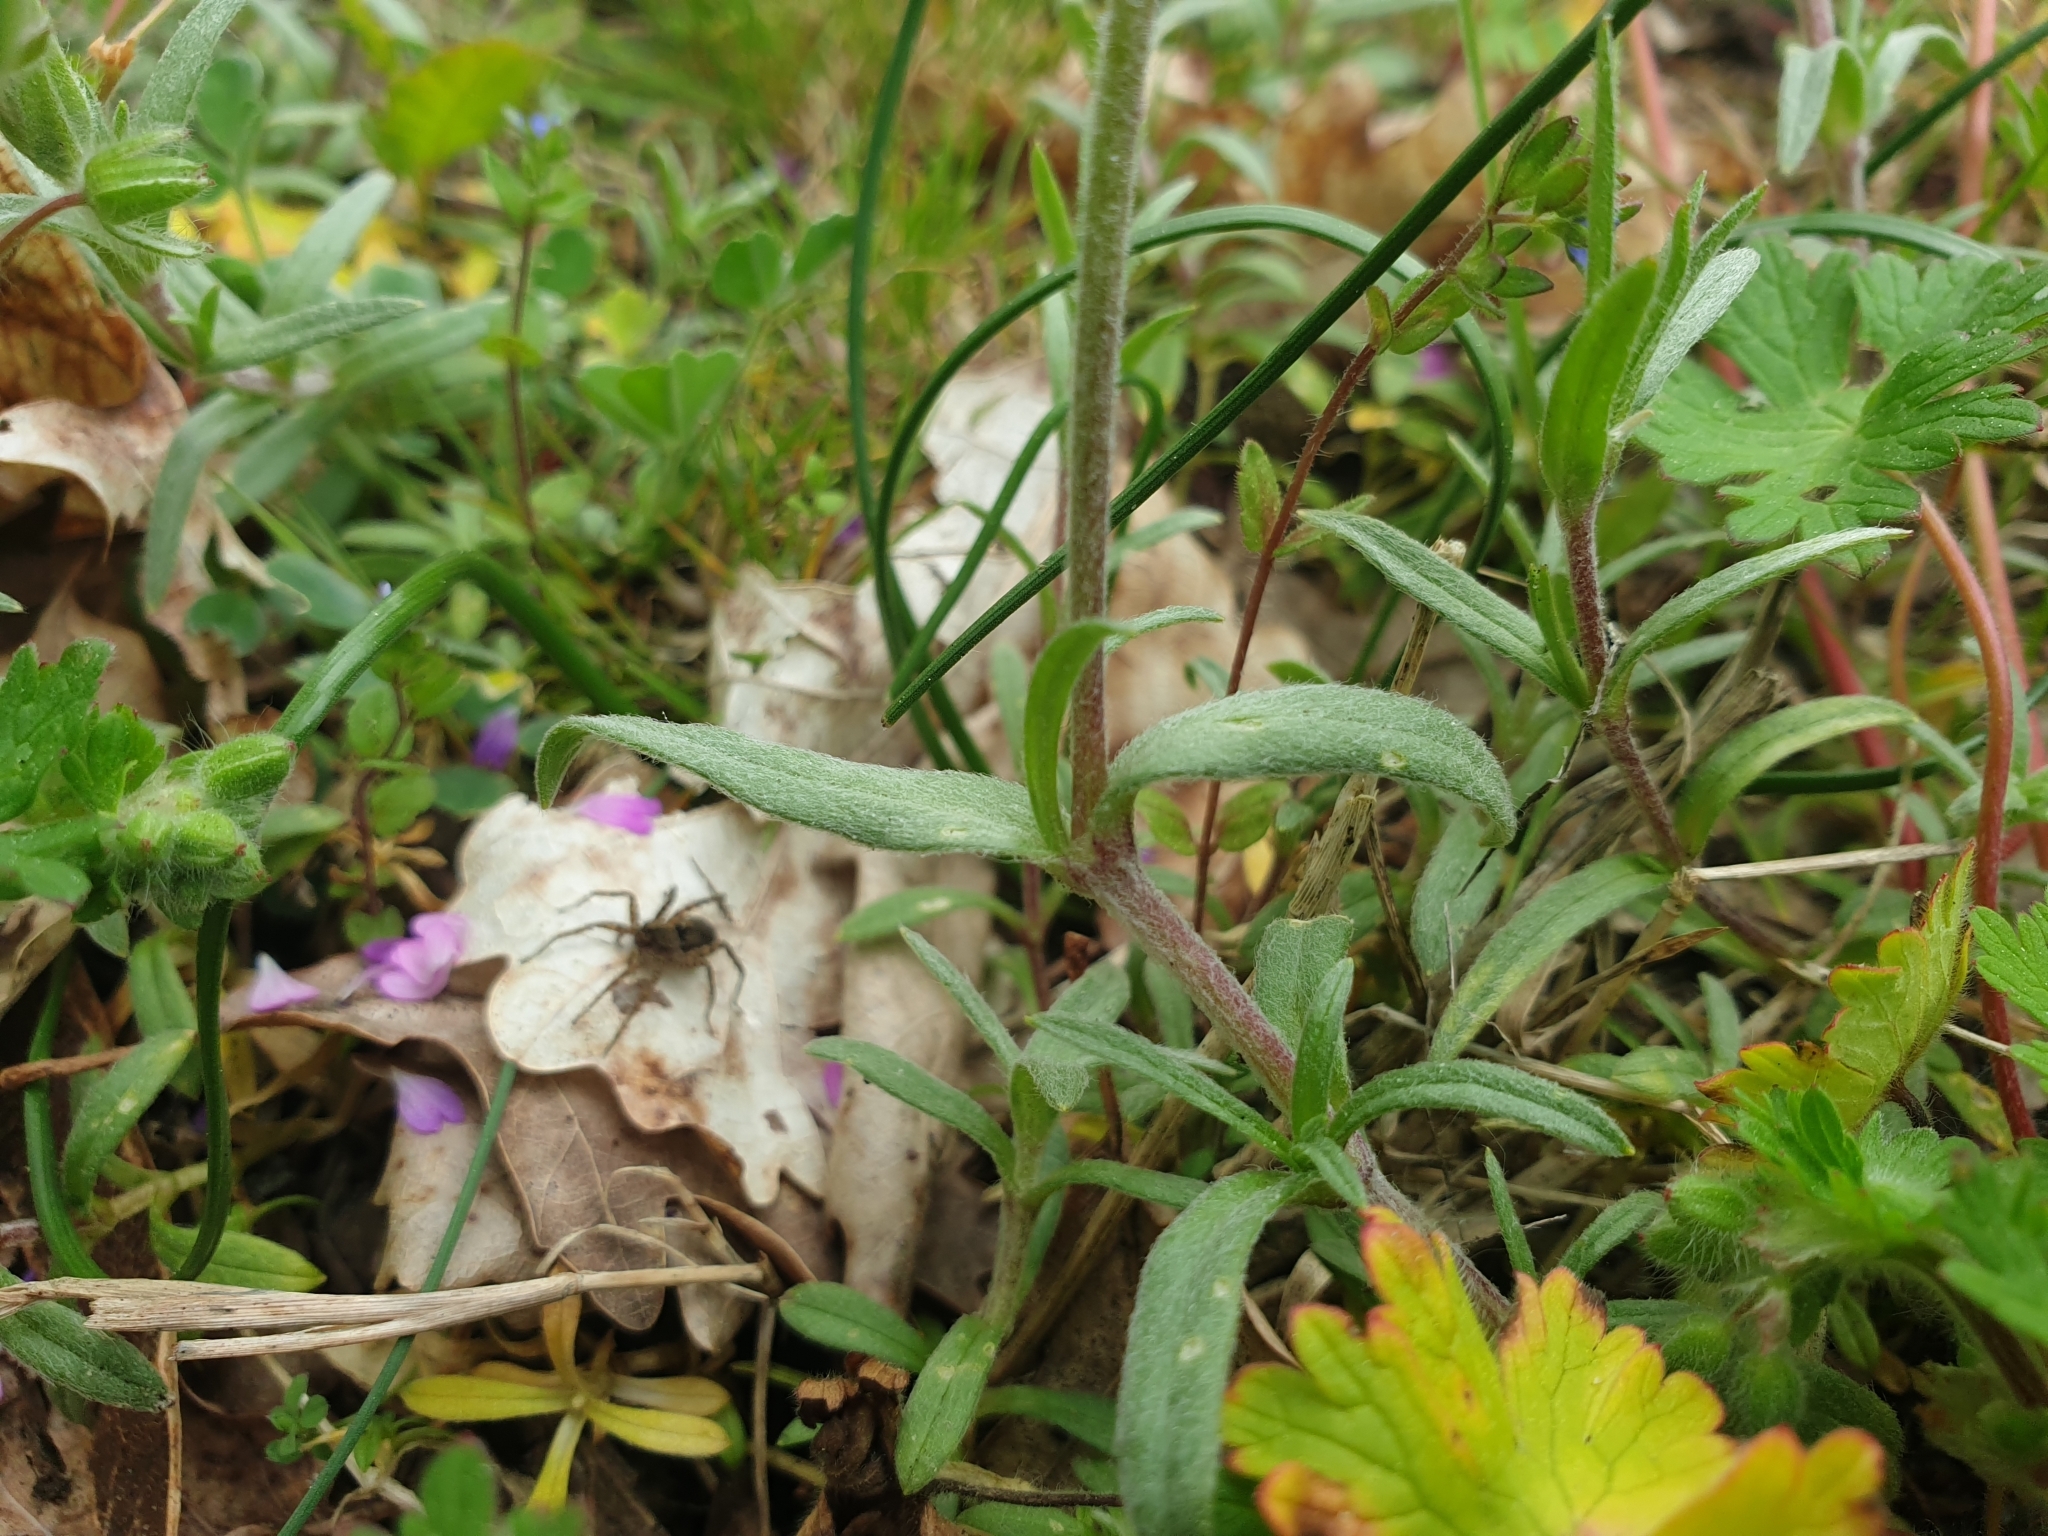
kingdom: Plantae
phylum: Tracheophyta
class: Magnoliopsida
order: Caryophyllales
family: Caryophyllaceae
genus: Cerastium
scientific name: Cerastium arvense
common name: Field mouse-ear
